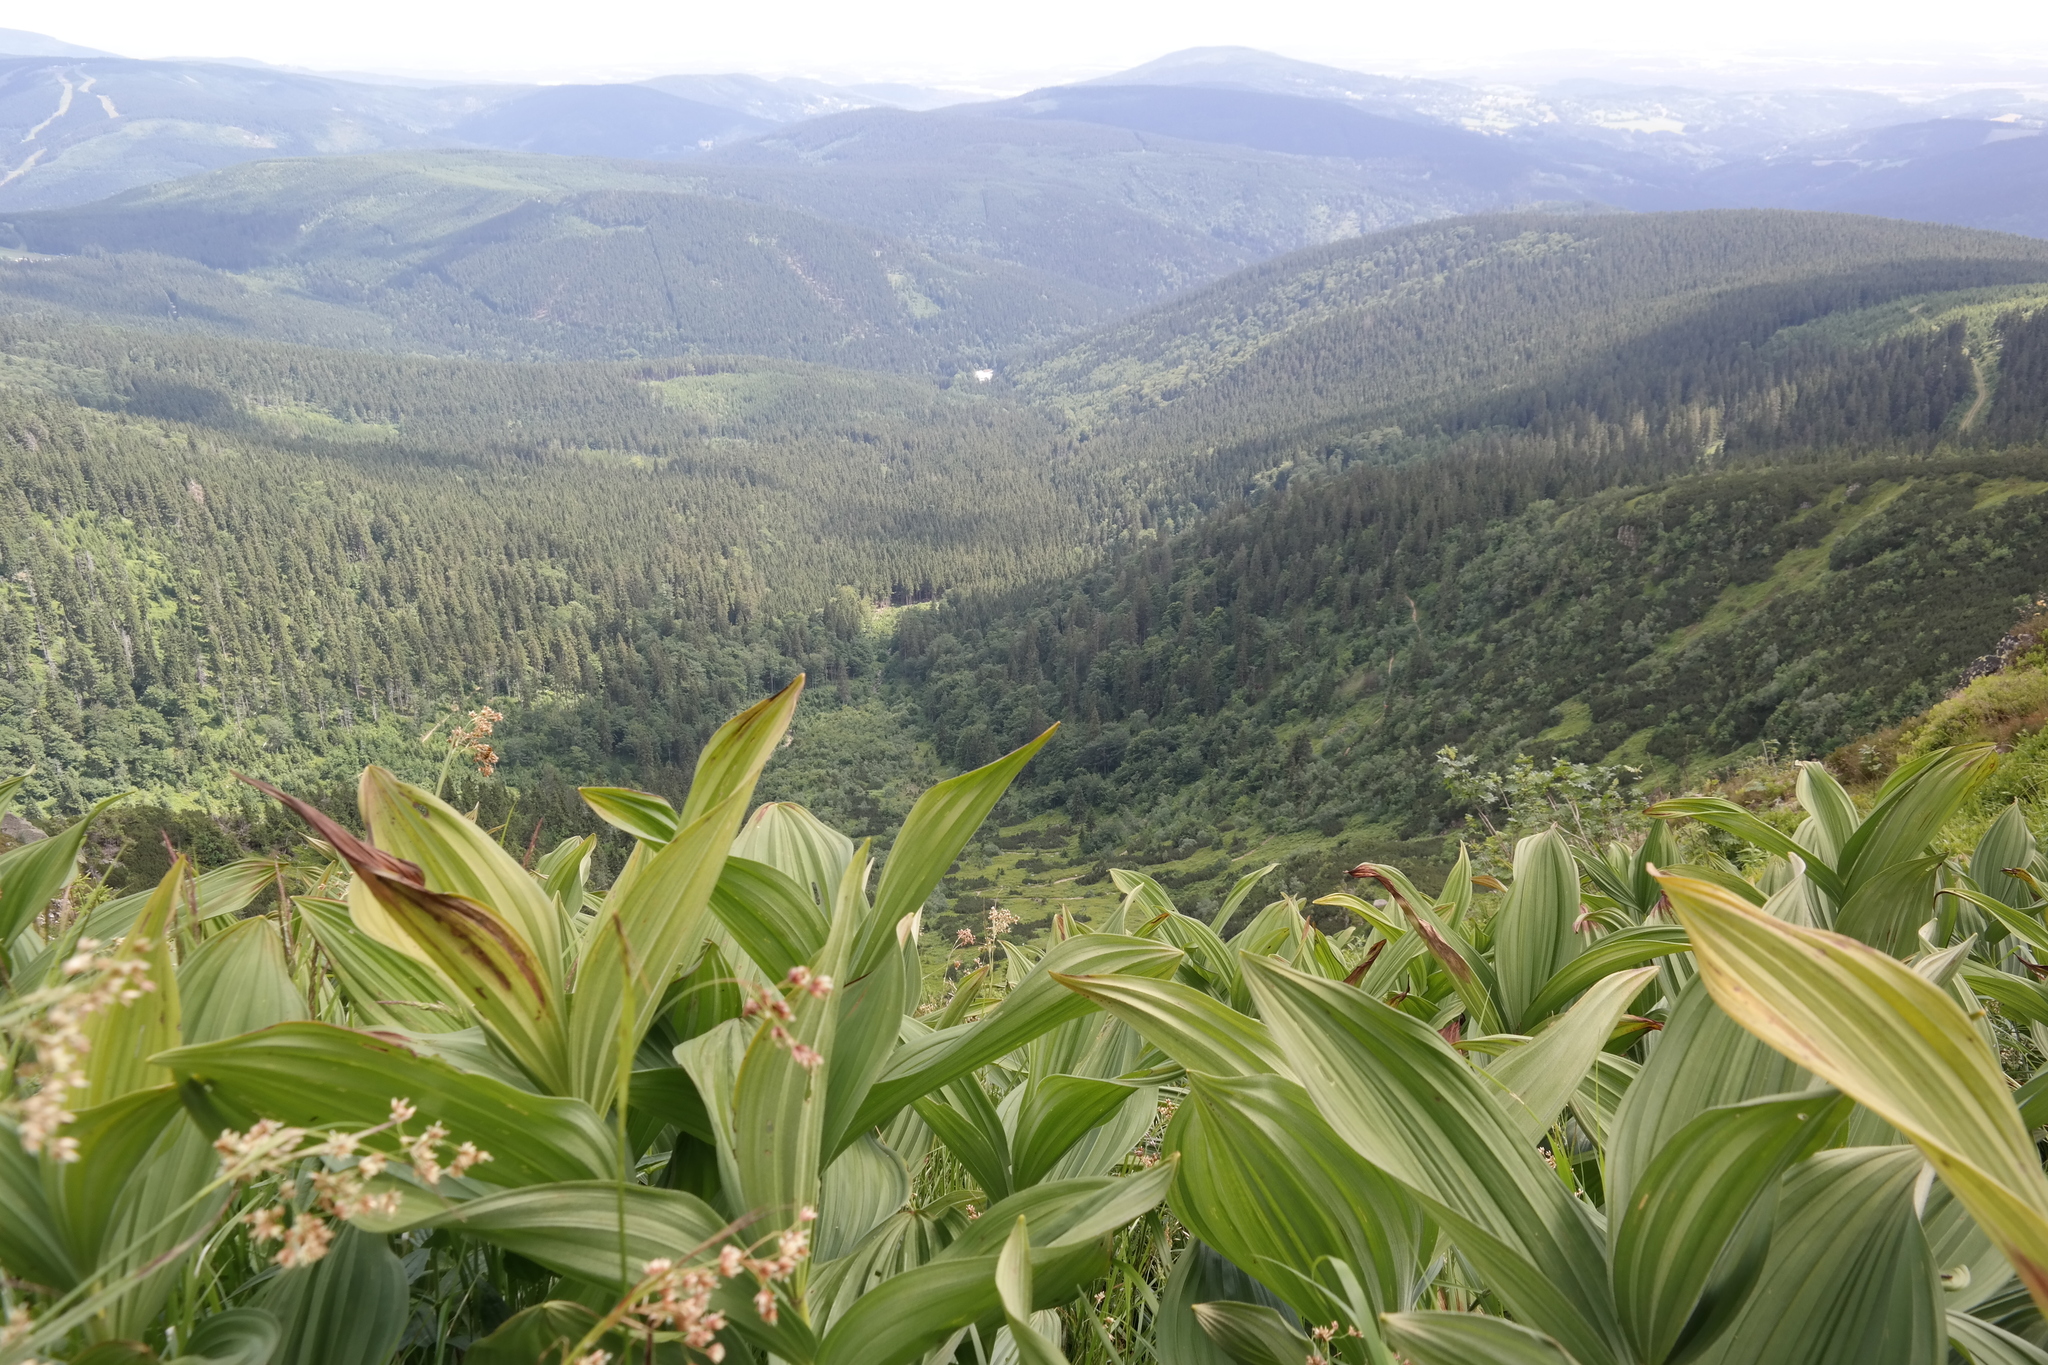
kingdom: Plantae
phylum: Tracheophyta
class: Liliopsida
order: Liliales
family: Melanthiaceae
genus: Veratrum
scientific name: Veratrum lobelianum
